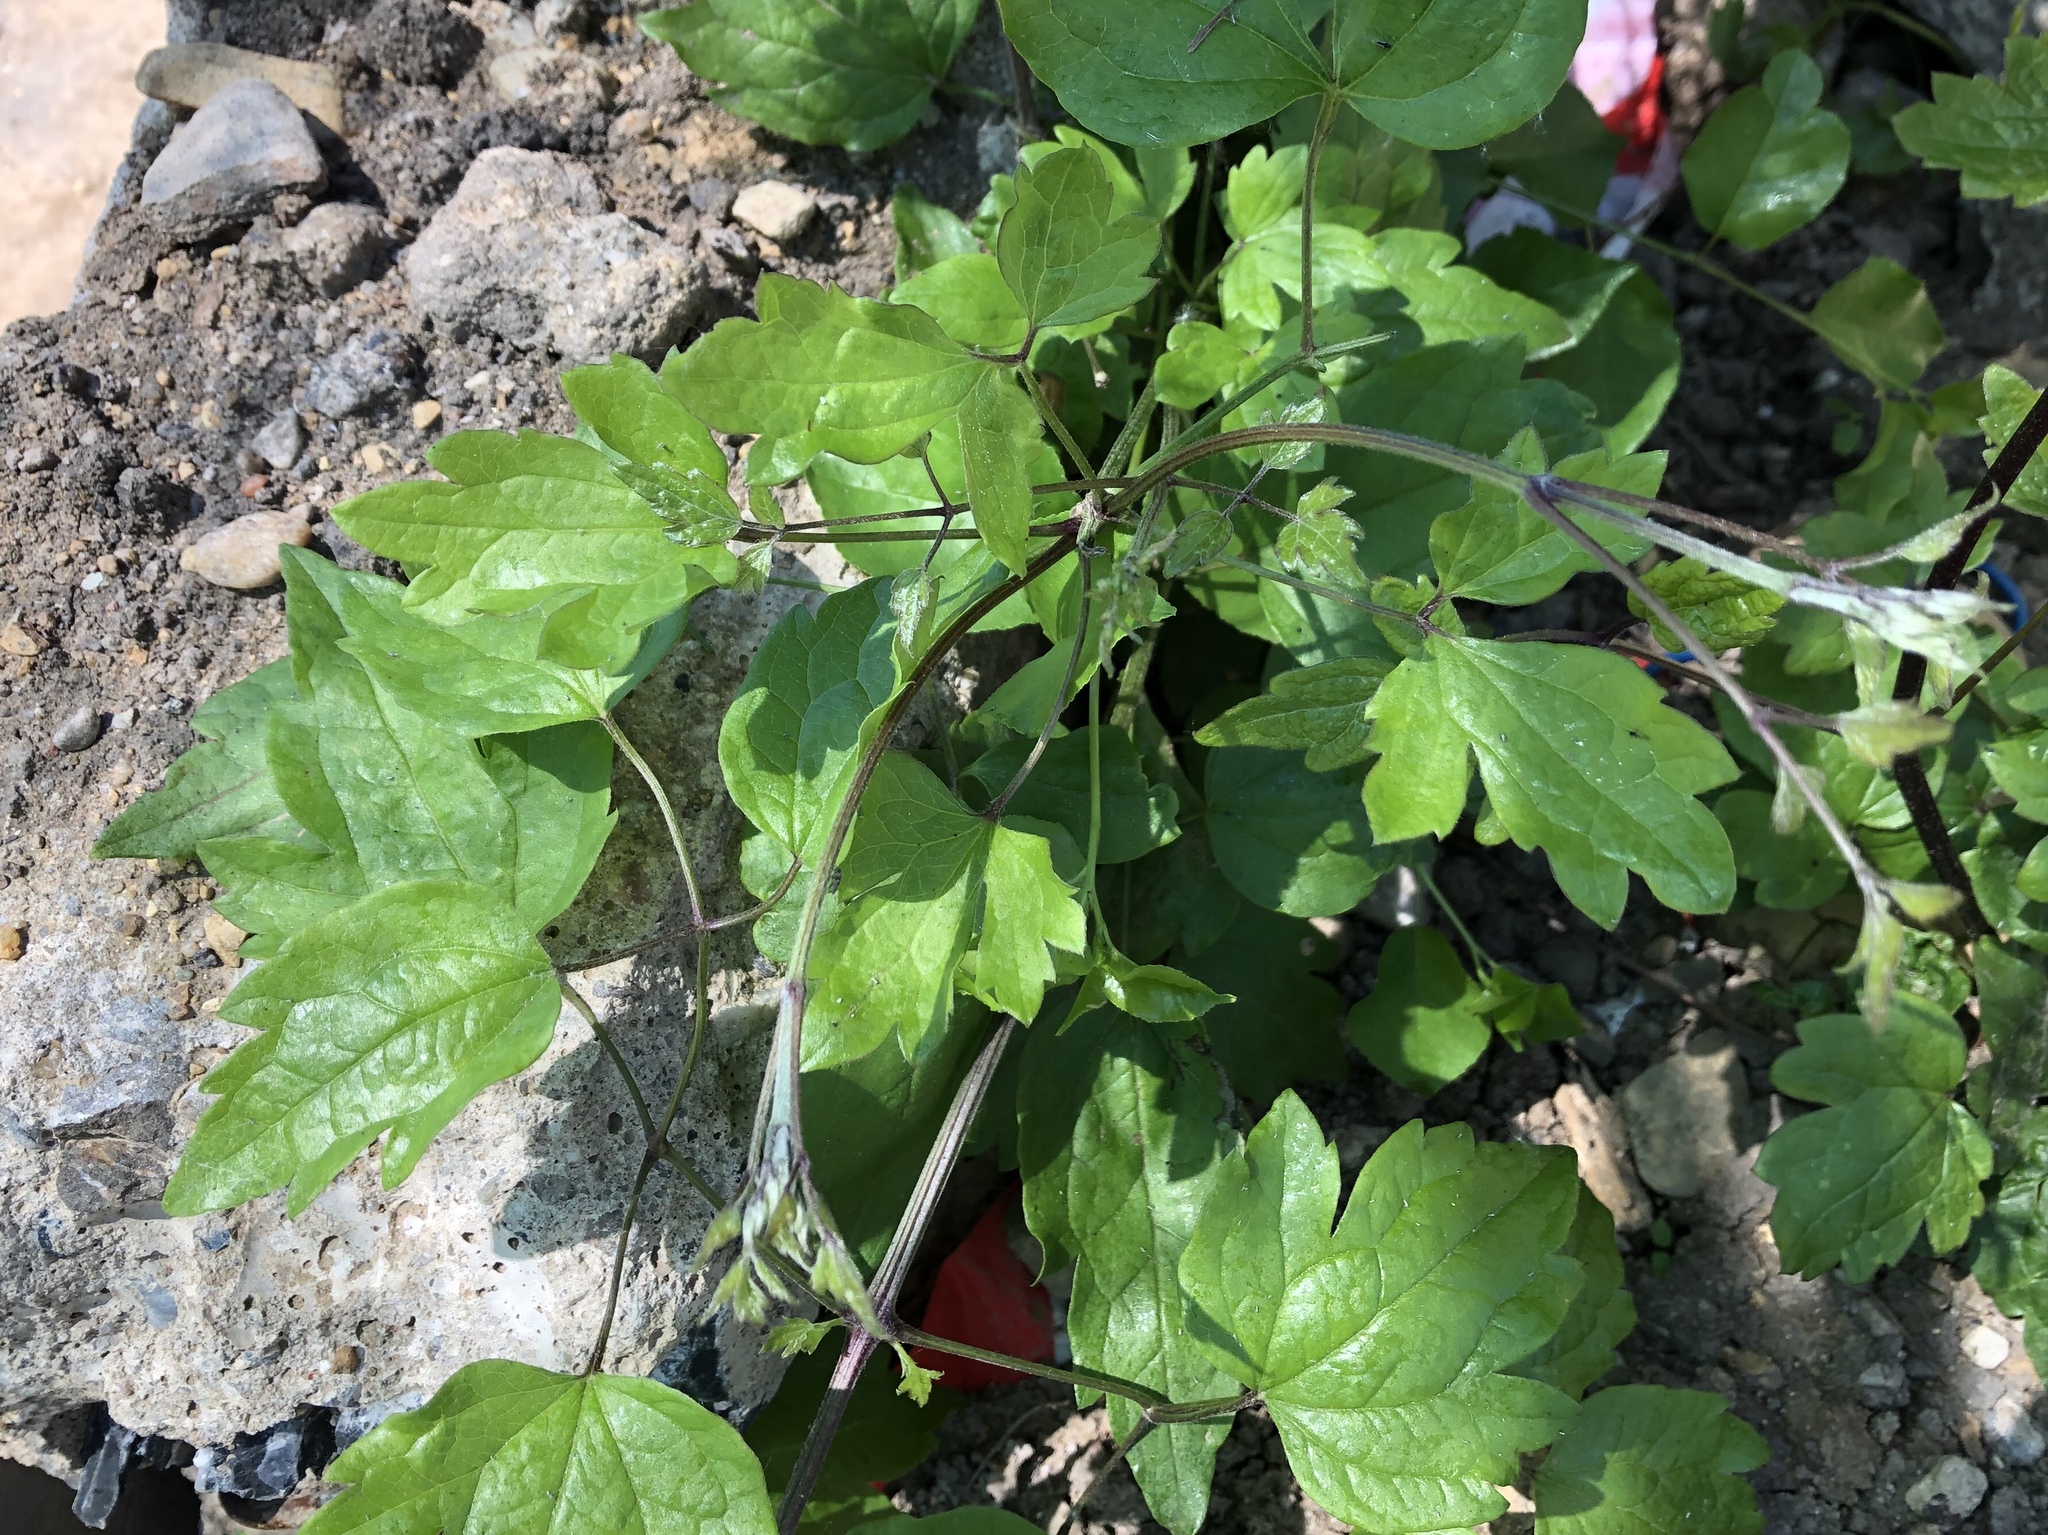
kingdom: Plantae
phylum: Tracheophyta
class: Magnoliopsida
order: Ranunculales
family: Ranunculaceae
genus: Clematis
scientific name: Clematis vitalba
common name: Evergreen clematis
